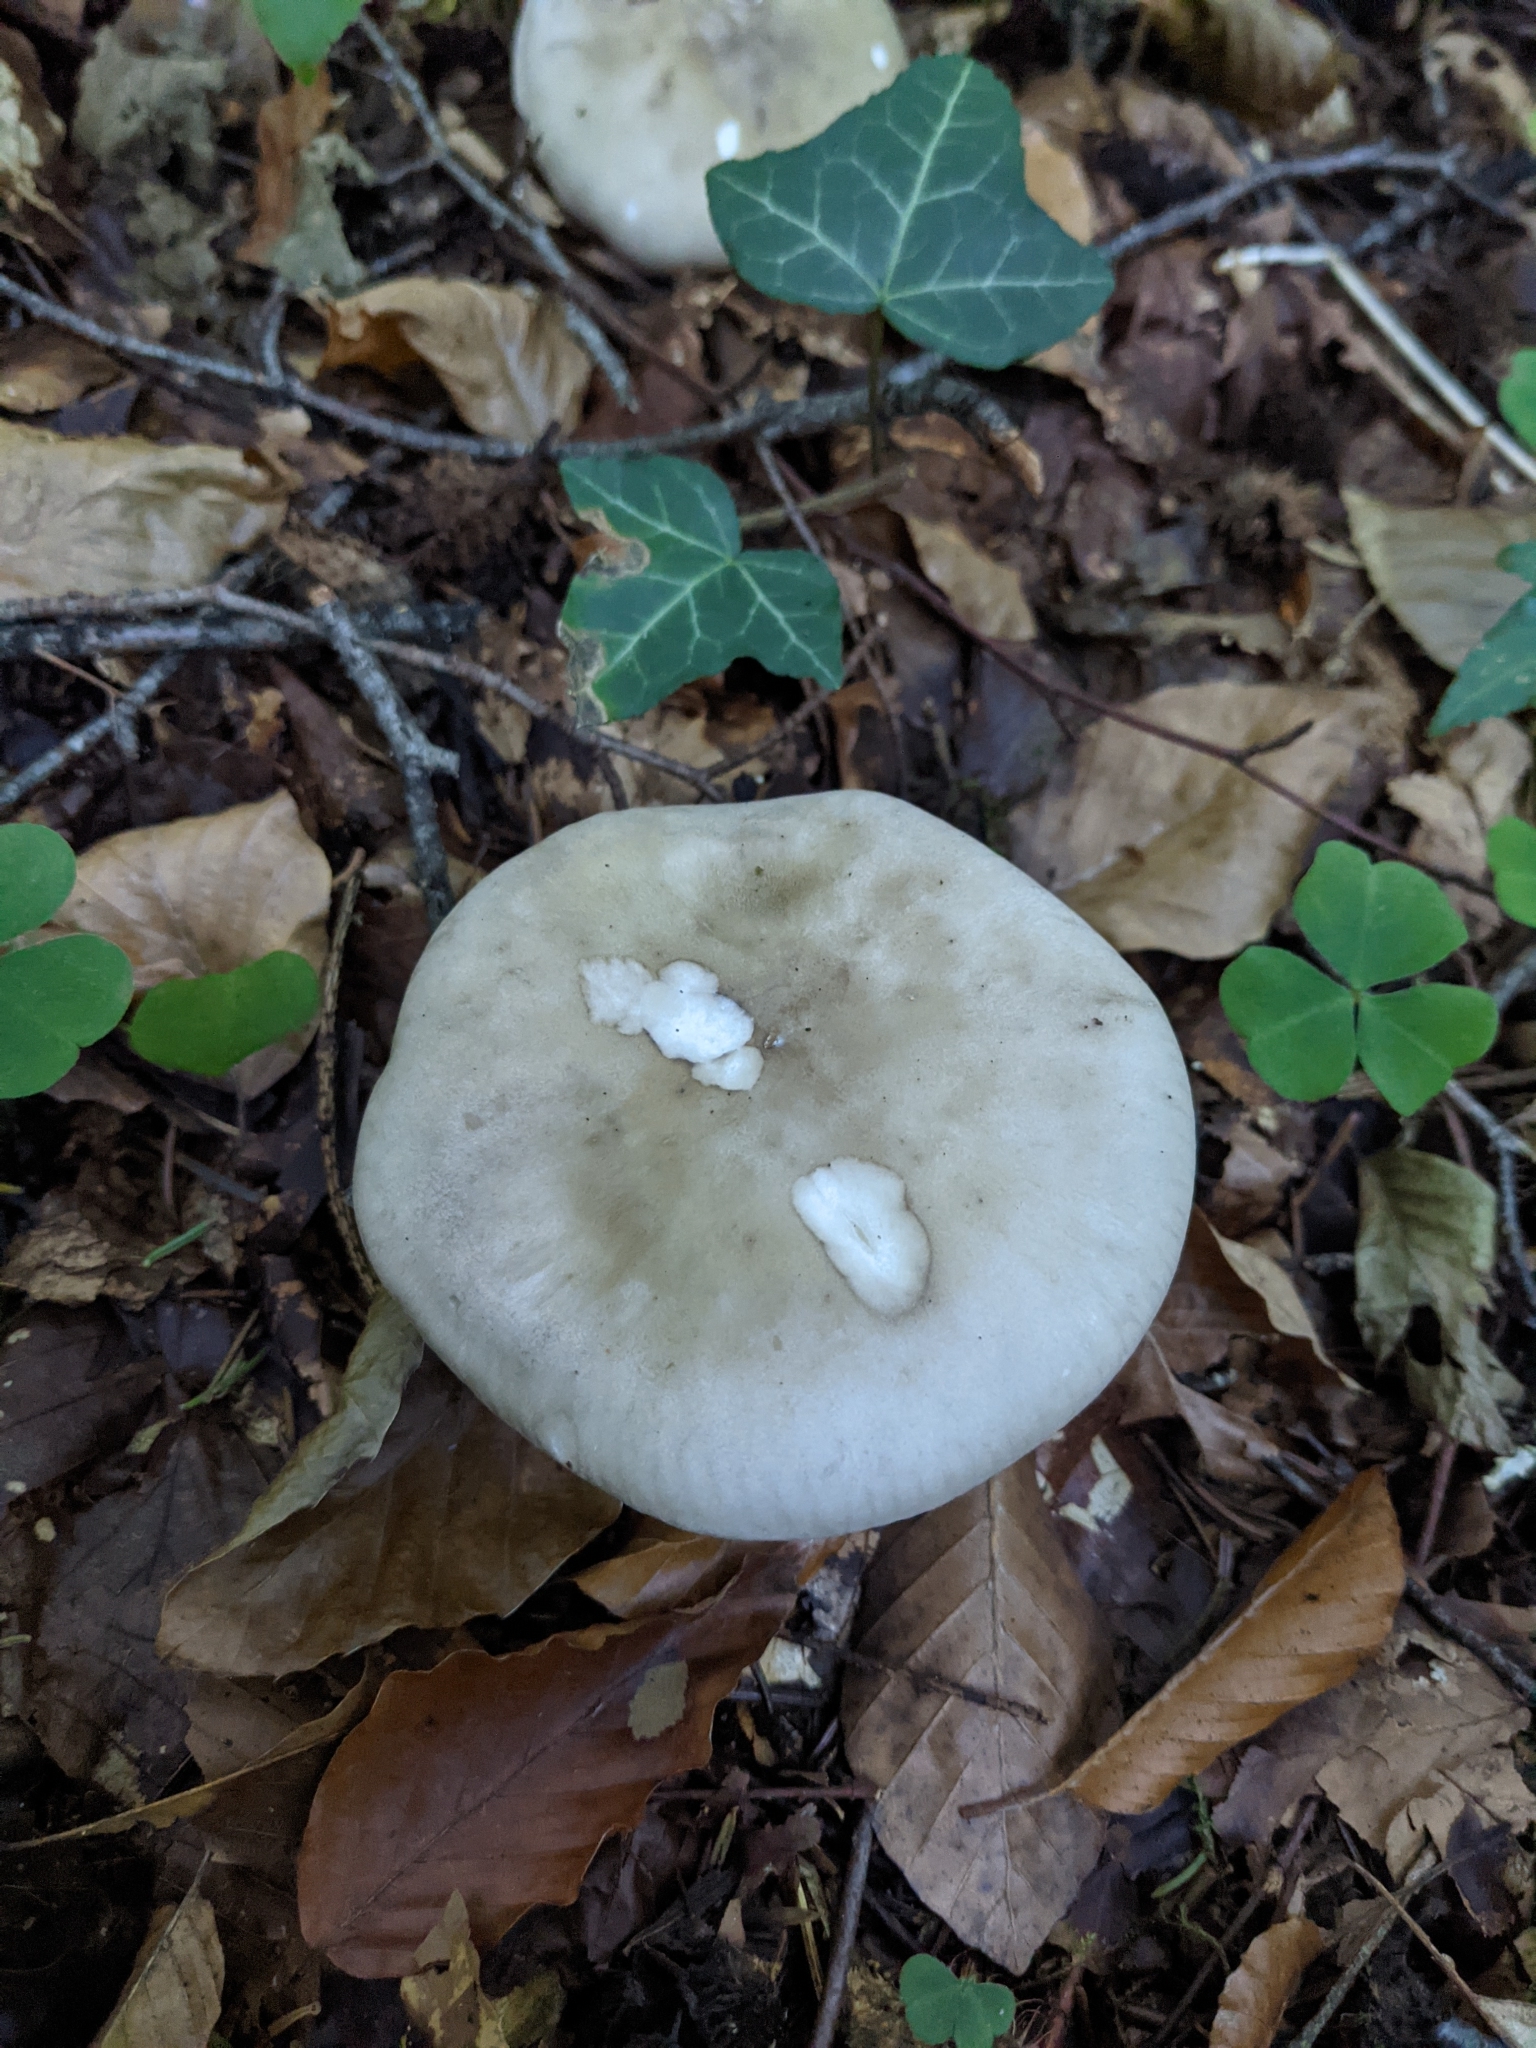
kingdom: Fungi
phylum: Basidiomycota
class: Agaricomycetes
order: Agaricales
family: Tricholomataceae
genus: Clitocybe
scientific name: Clitocybe nebularis
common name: Clouded agaric
